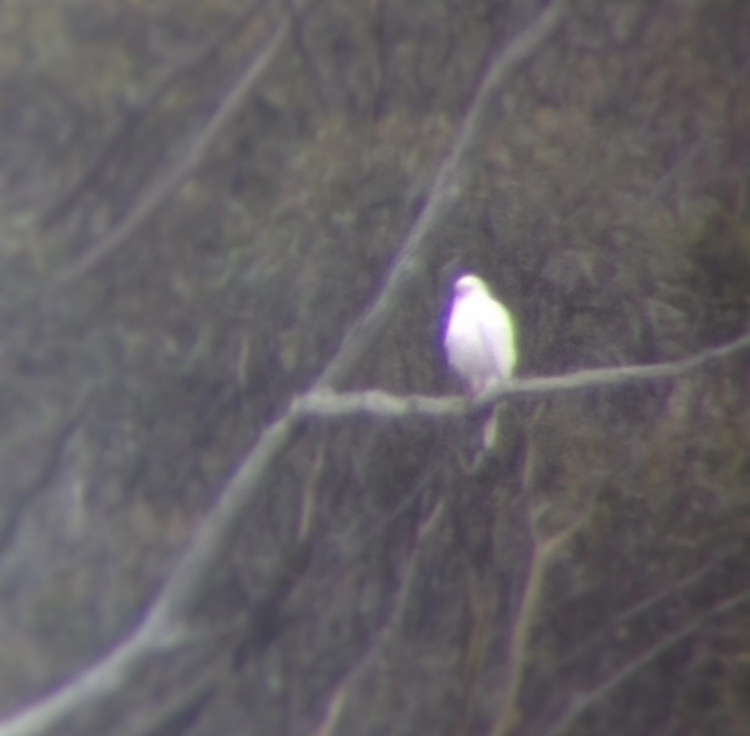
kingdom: Animalia
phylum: Chordata
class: Aves
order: Accipitriformes
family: Accipitridae
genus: Accipiter
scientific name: Accipiter novaehollandiae
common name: Grey goshawk
